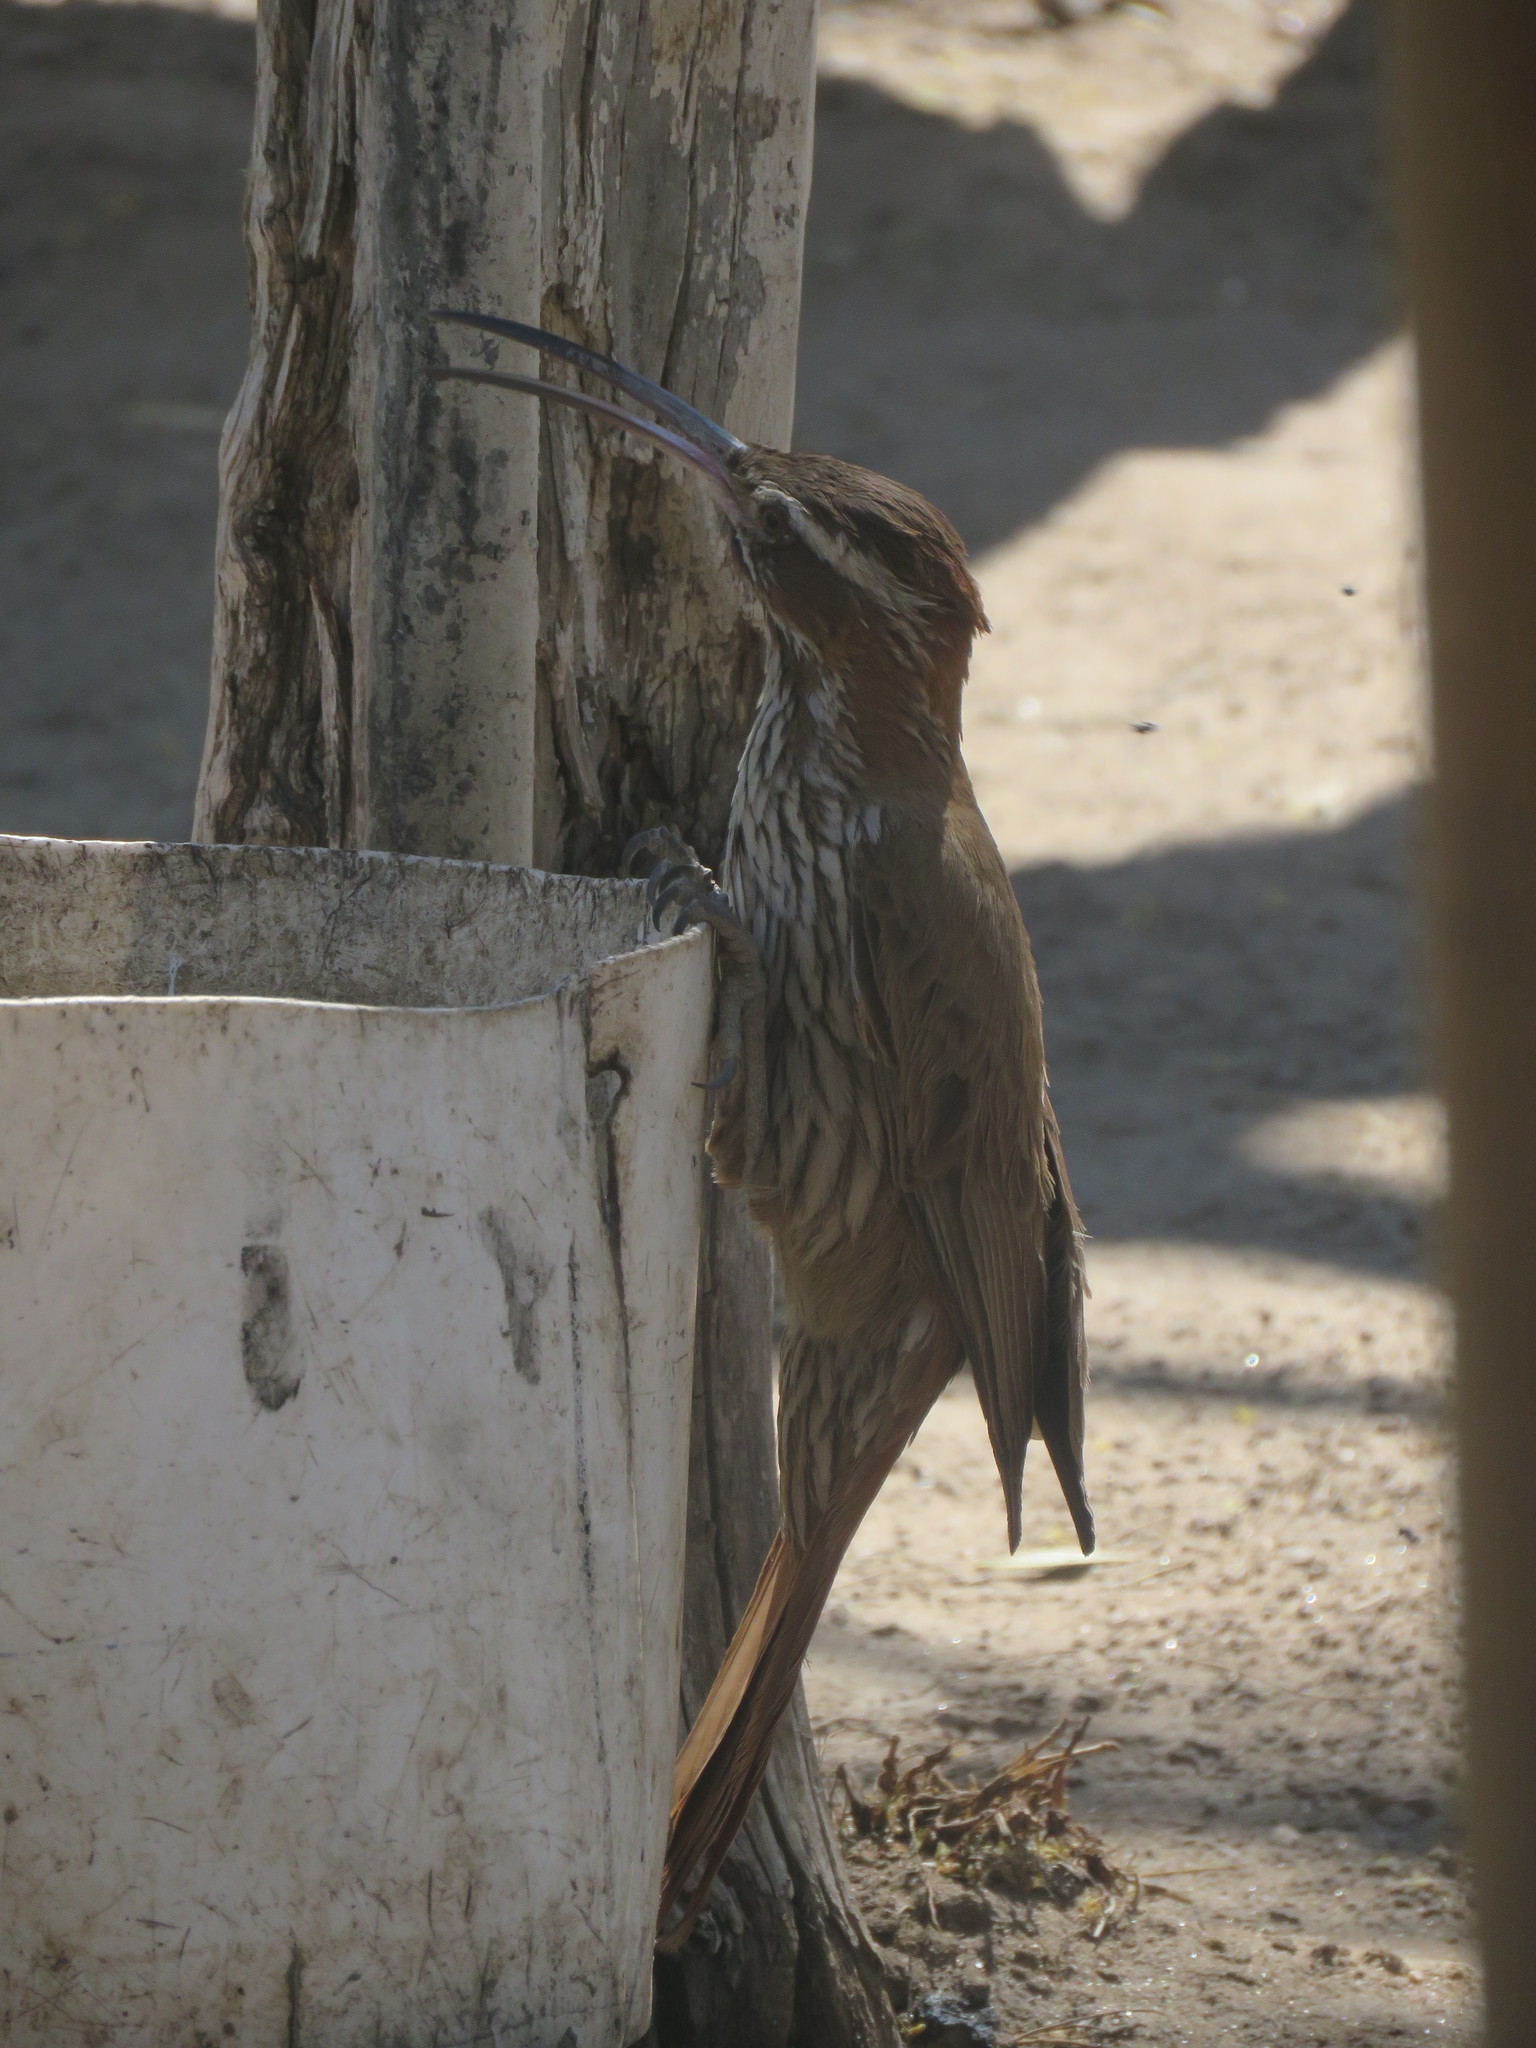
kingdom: Animalia
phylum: Chordata
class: Aves
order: Passeriformes
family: Furnariidae
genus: Drymornis
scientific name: Drymornis bridgesii
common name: Scimitar-billed woodcreeper
